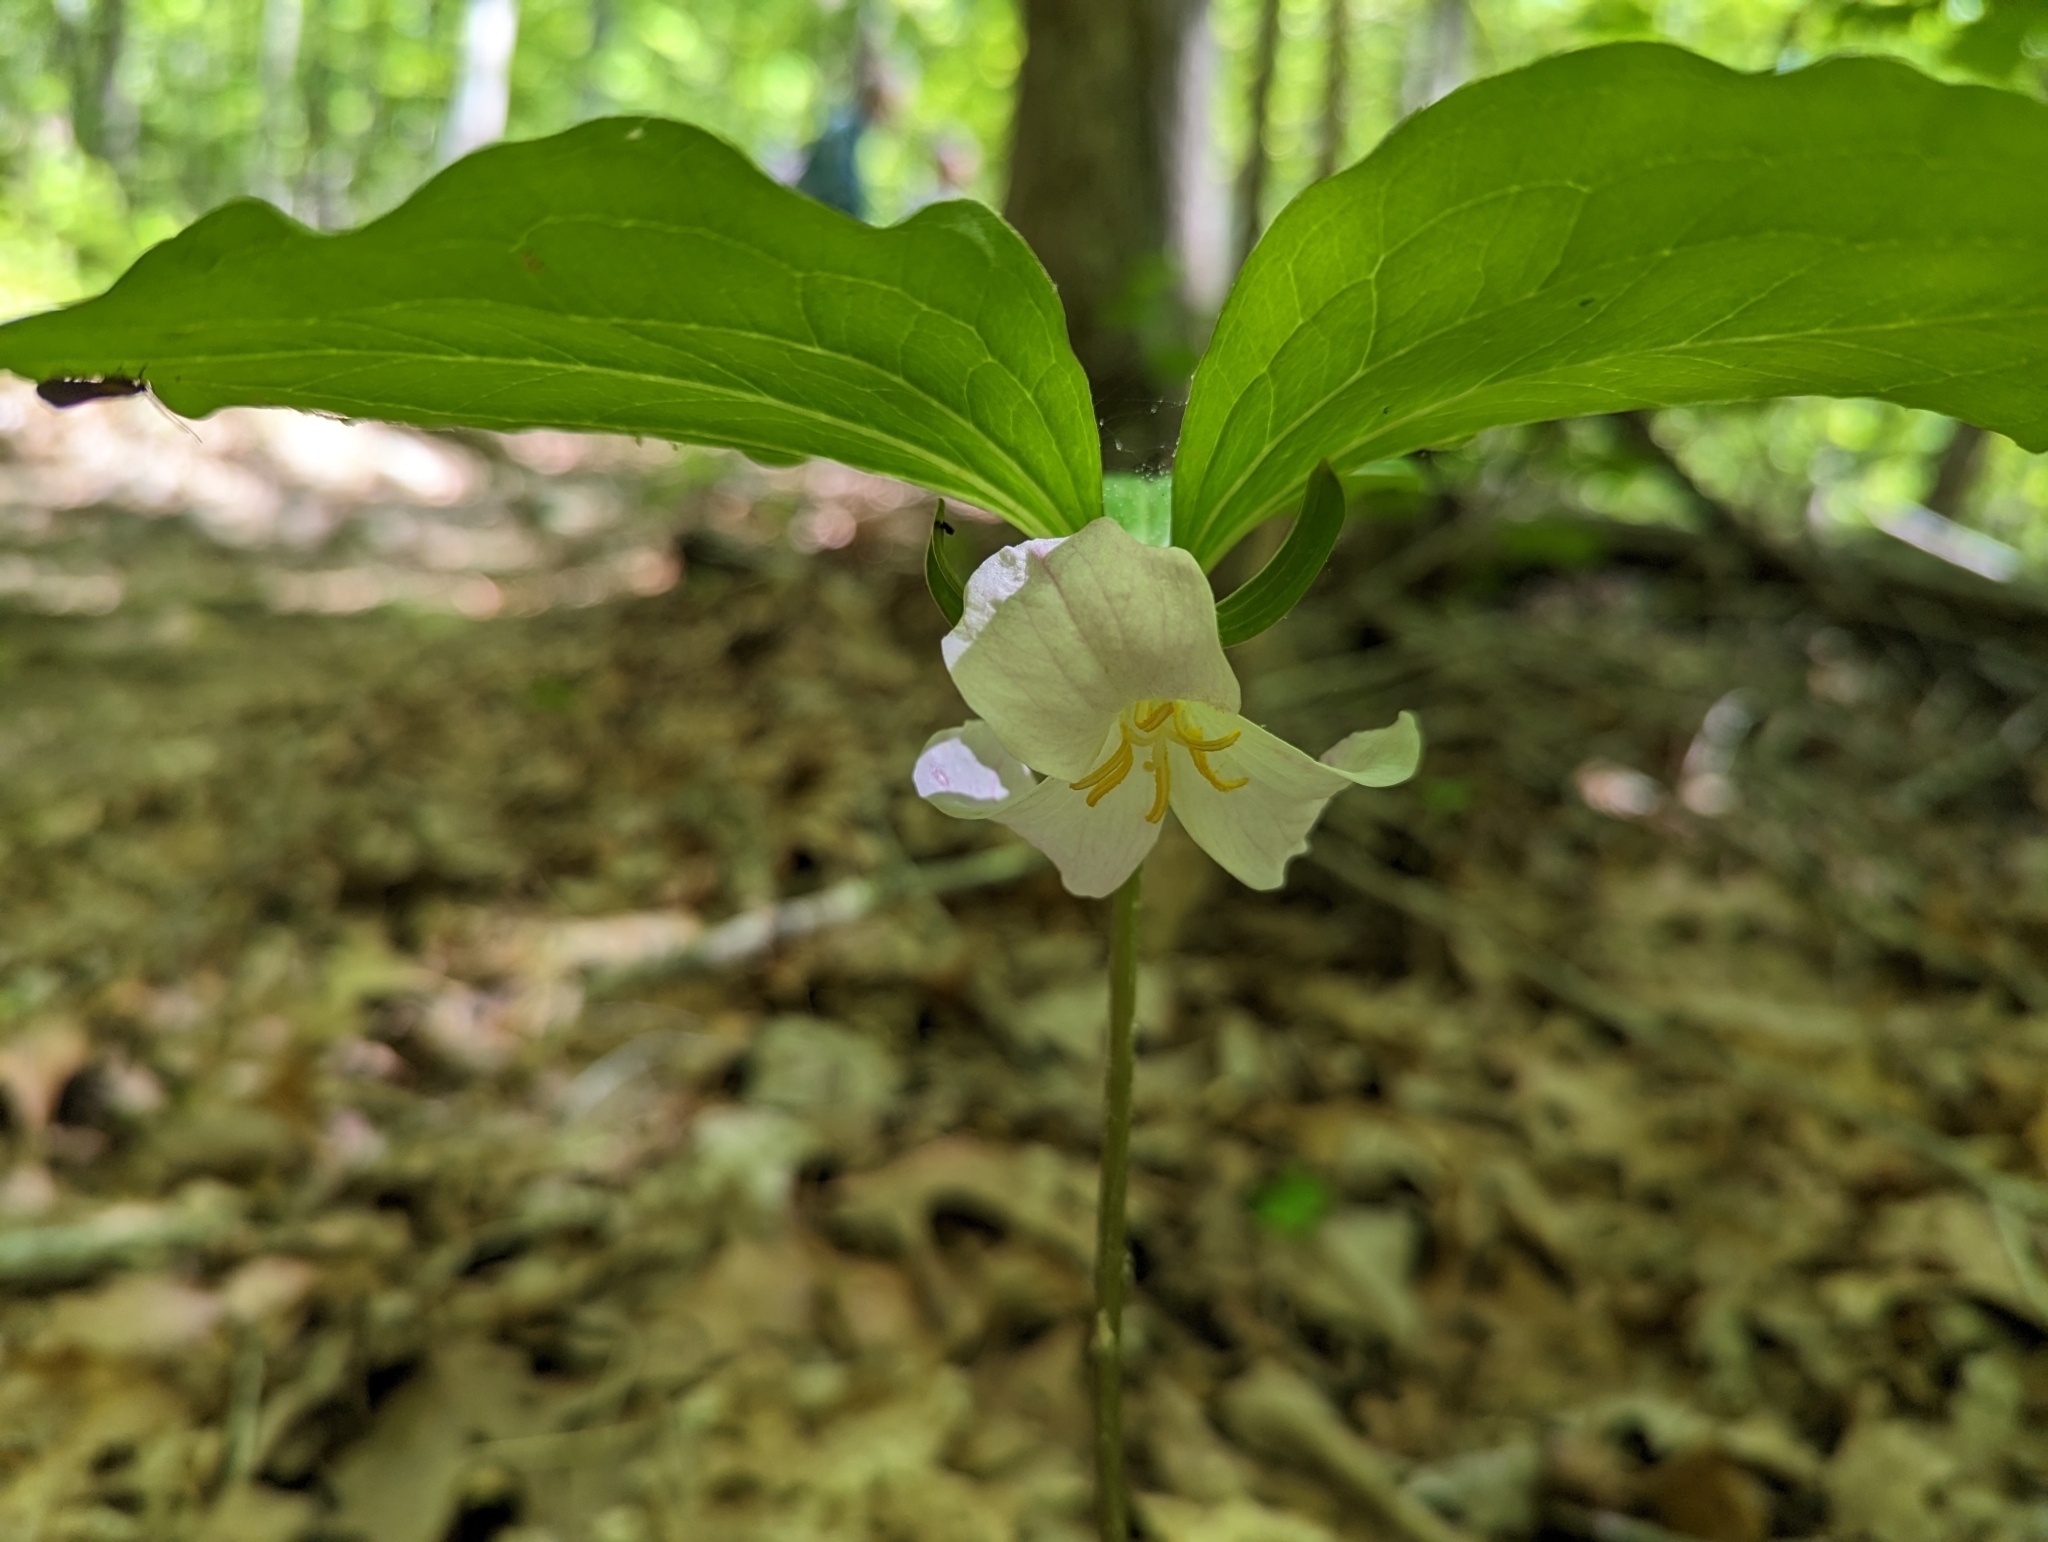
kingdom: Plantae
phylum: Tracheophyta
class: Liliopsida
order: Liliales
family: Melanthiaceae
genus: Trillium
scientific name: Trillium catesbaei
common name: Bashful trillium
